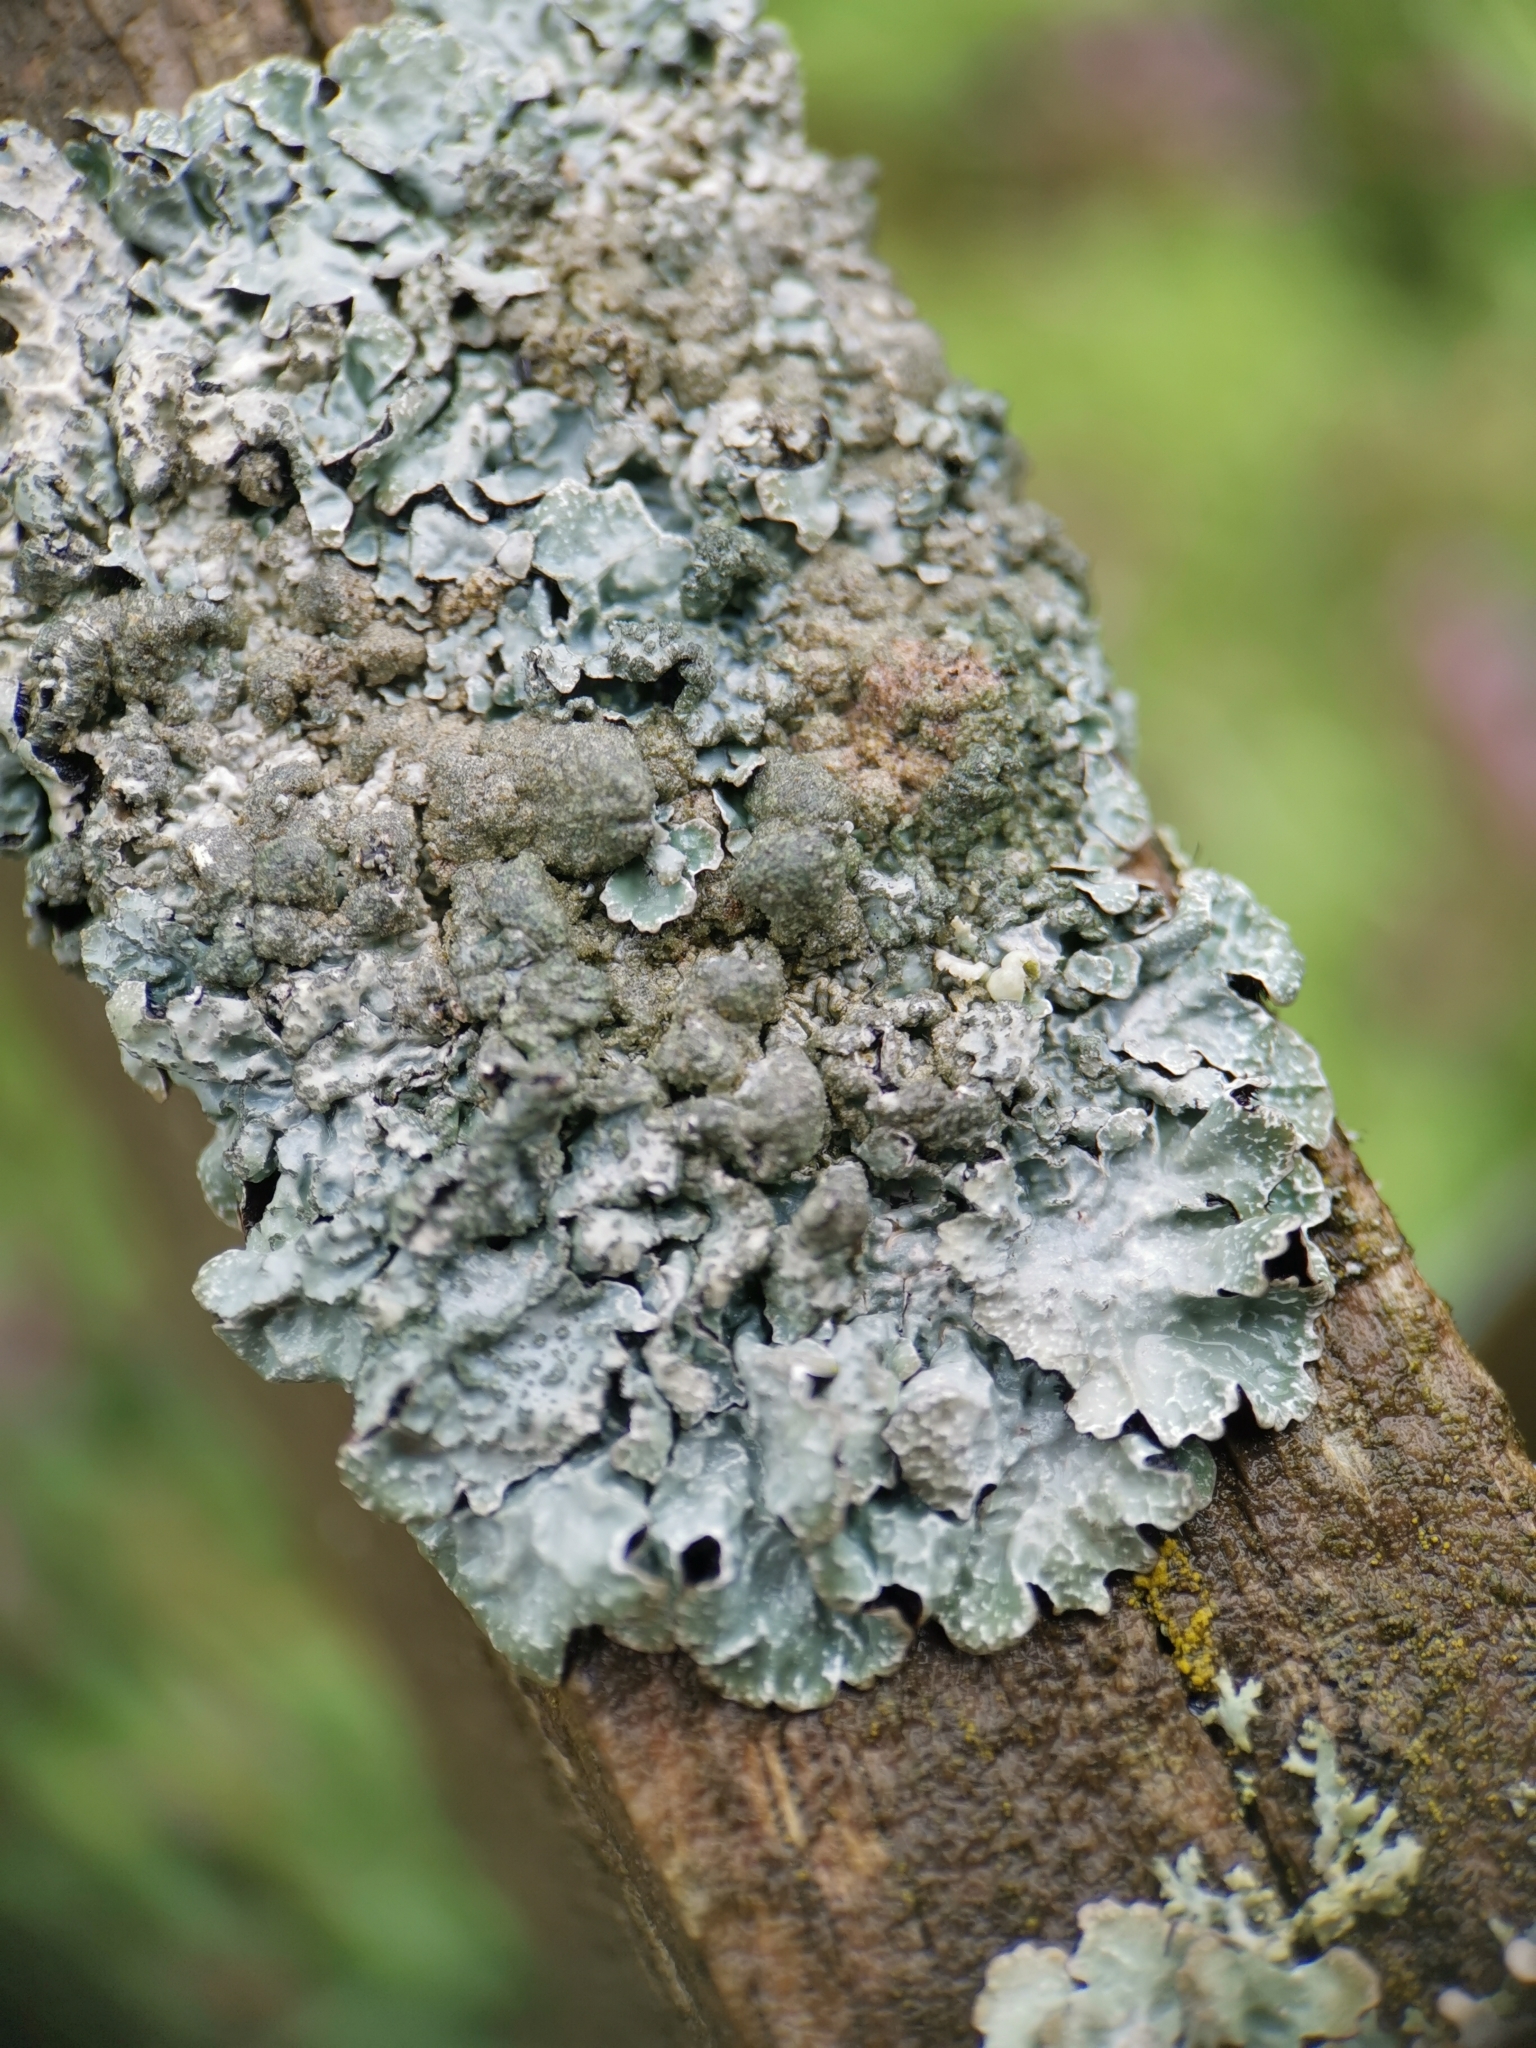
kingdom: Fungi
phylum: Ascomycota
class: Lecanoromycetes
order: Lecanorales
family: Parmeliaceae
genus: Parmelia
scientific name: Parmelia sulcata
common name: Netted shield lichen
